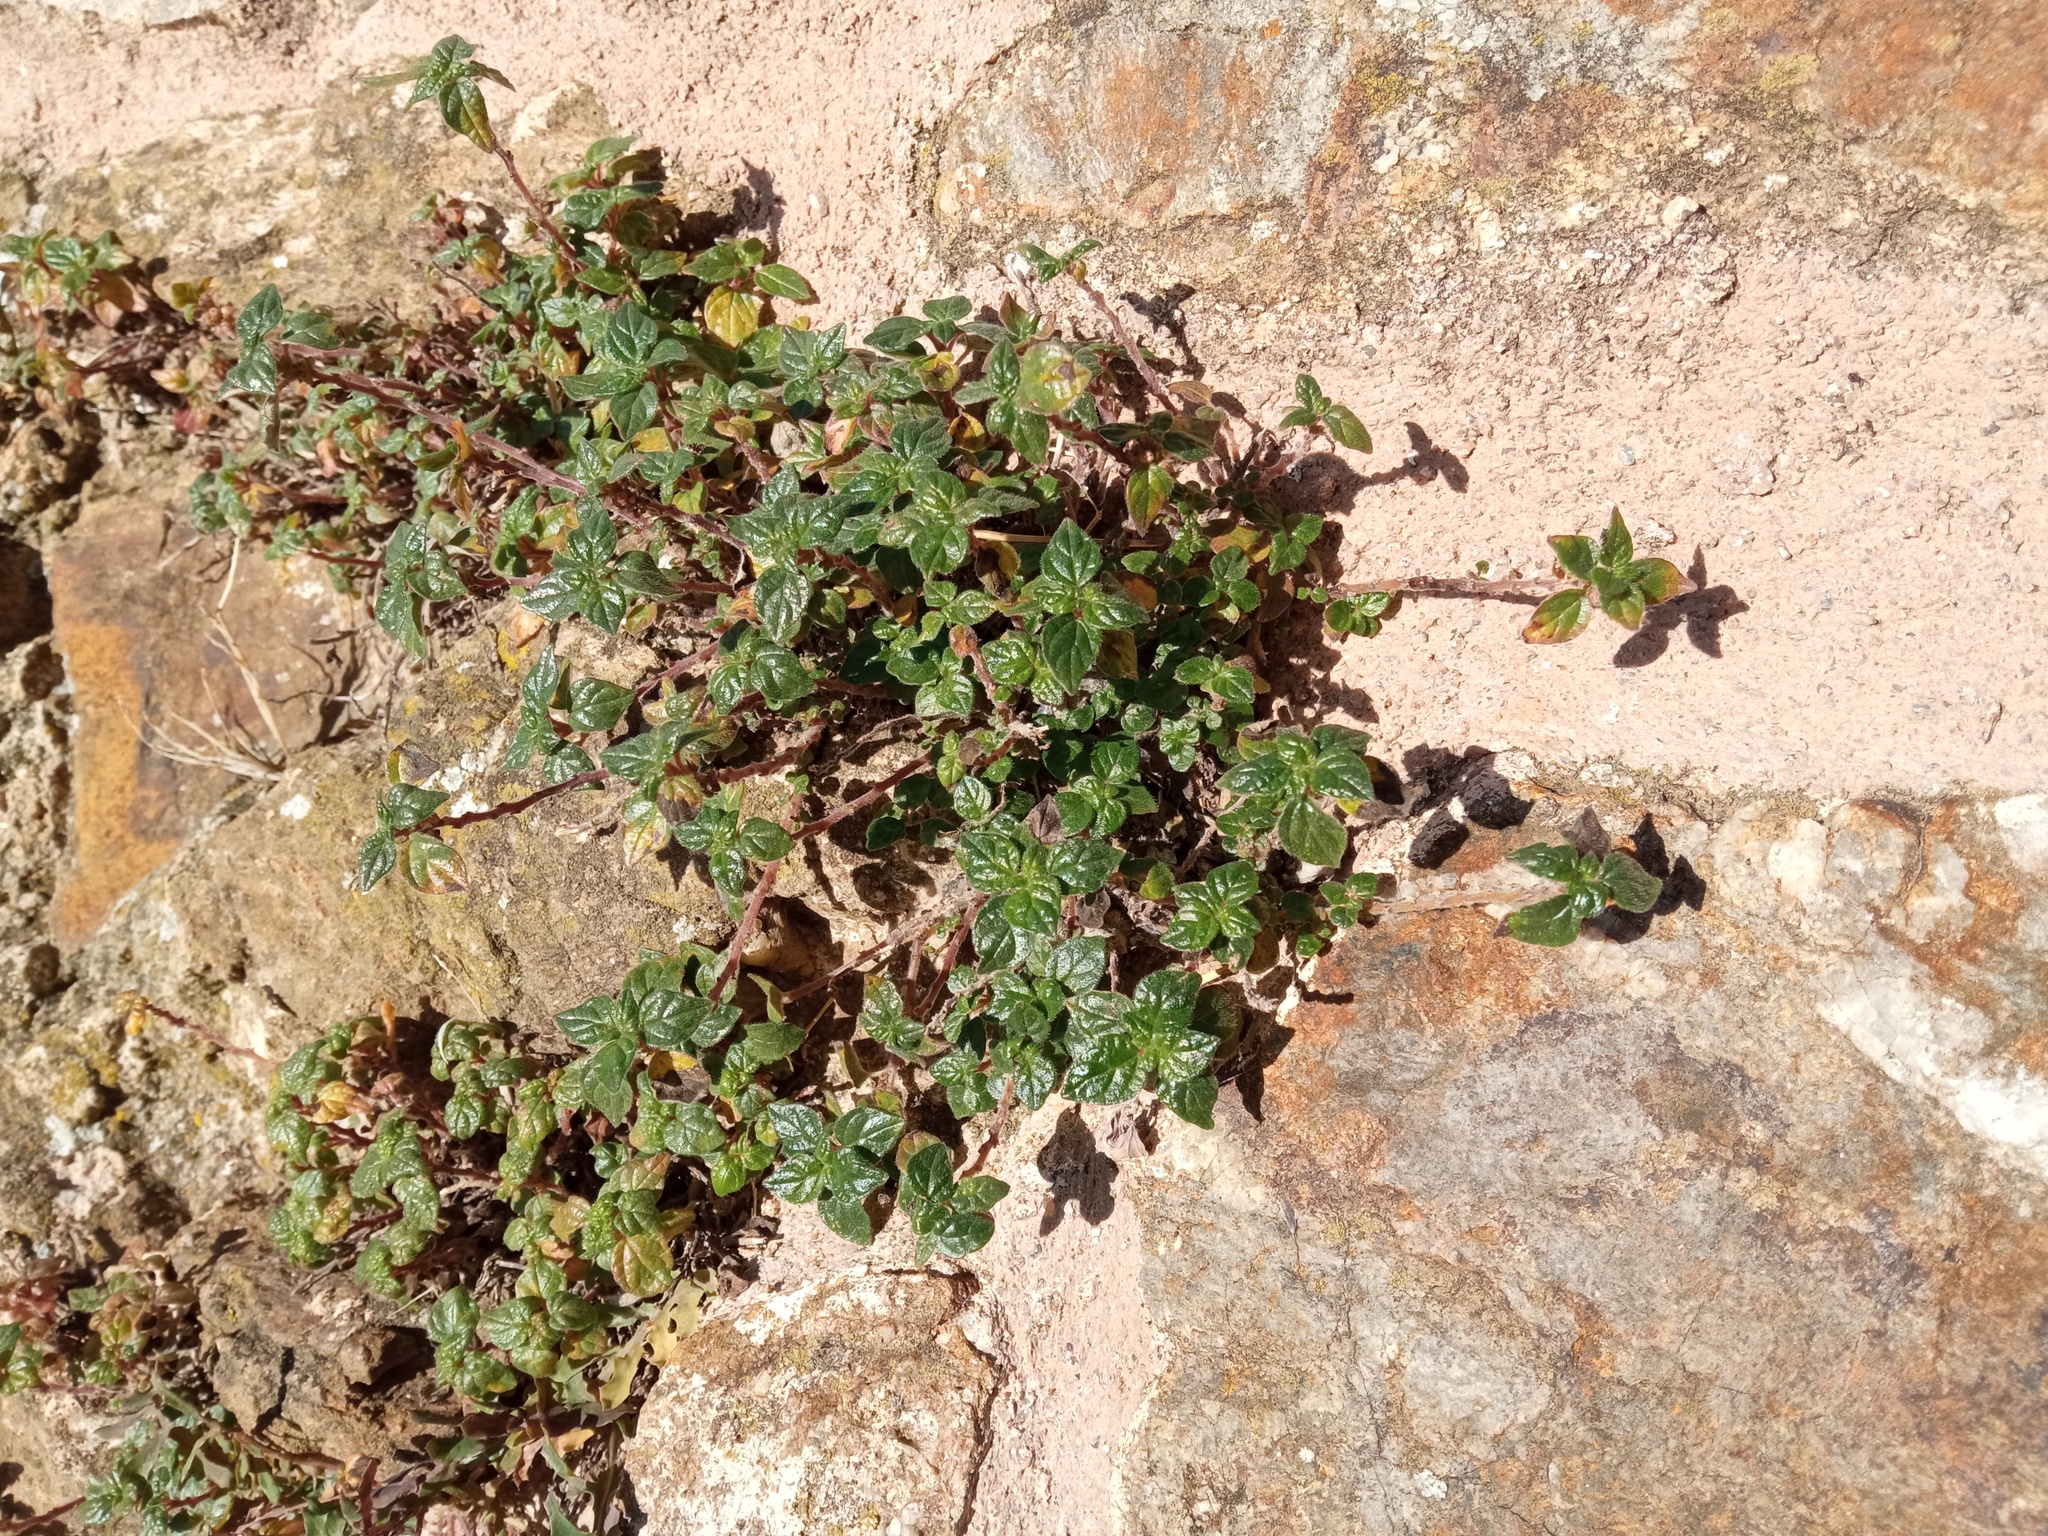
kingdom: Plantae
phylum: Tracheophyta
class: Magnoliopsida
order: Rosales
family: Urticaceae
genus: Parietaria
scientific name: Parietaria judaica
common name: Pellitory-of-the-wall
